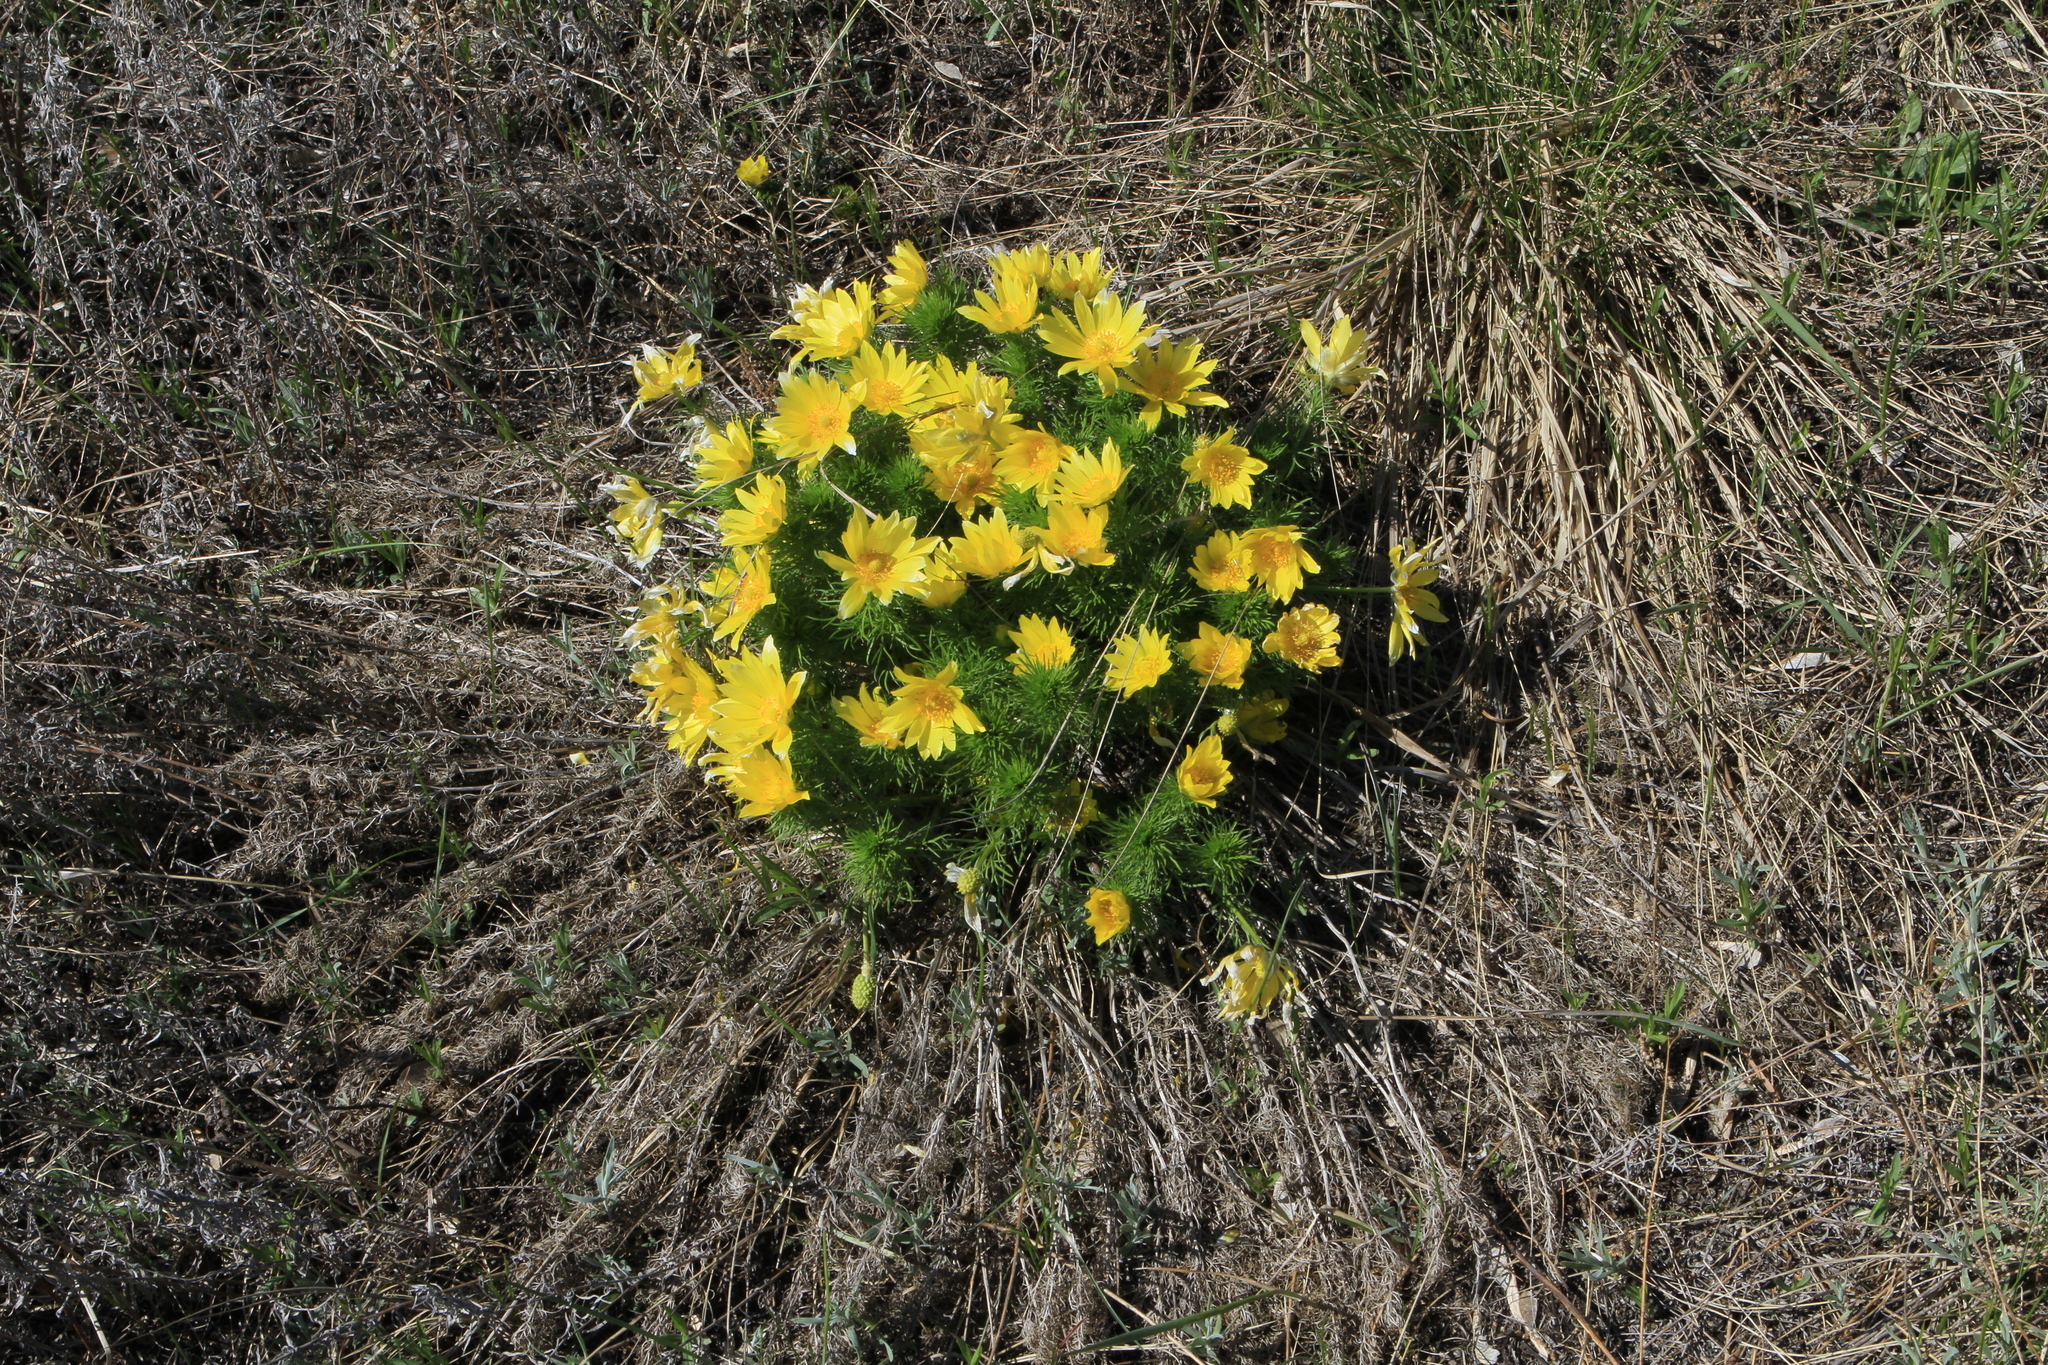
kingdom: Plantae
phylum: Tracheophyta
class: Magnoliopsida
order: Ranunculales
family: Ranunculaceae
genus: Adonis
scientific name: Adonis vernalis
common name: Yellow pheasants-eye
